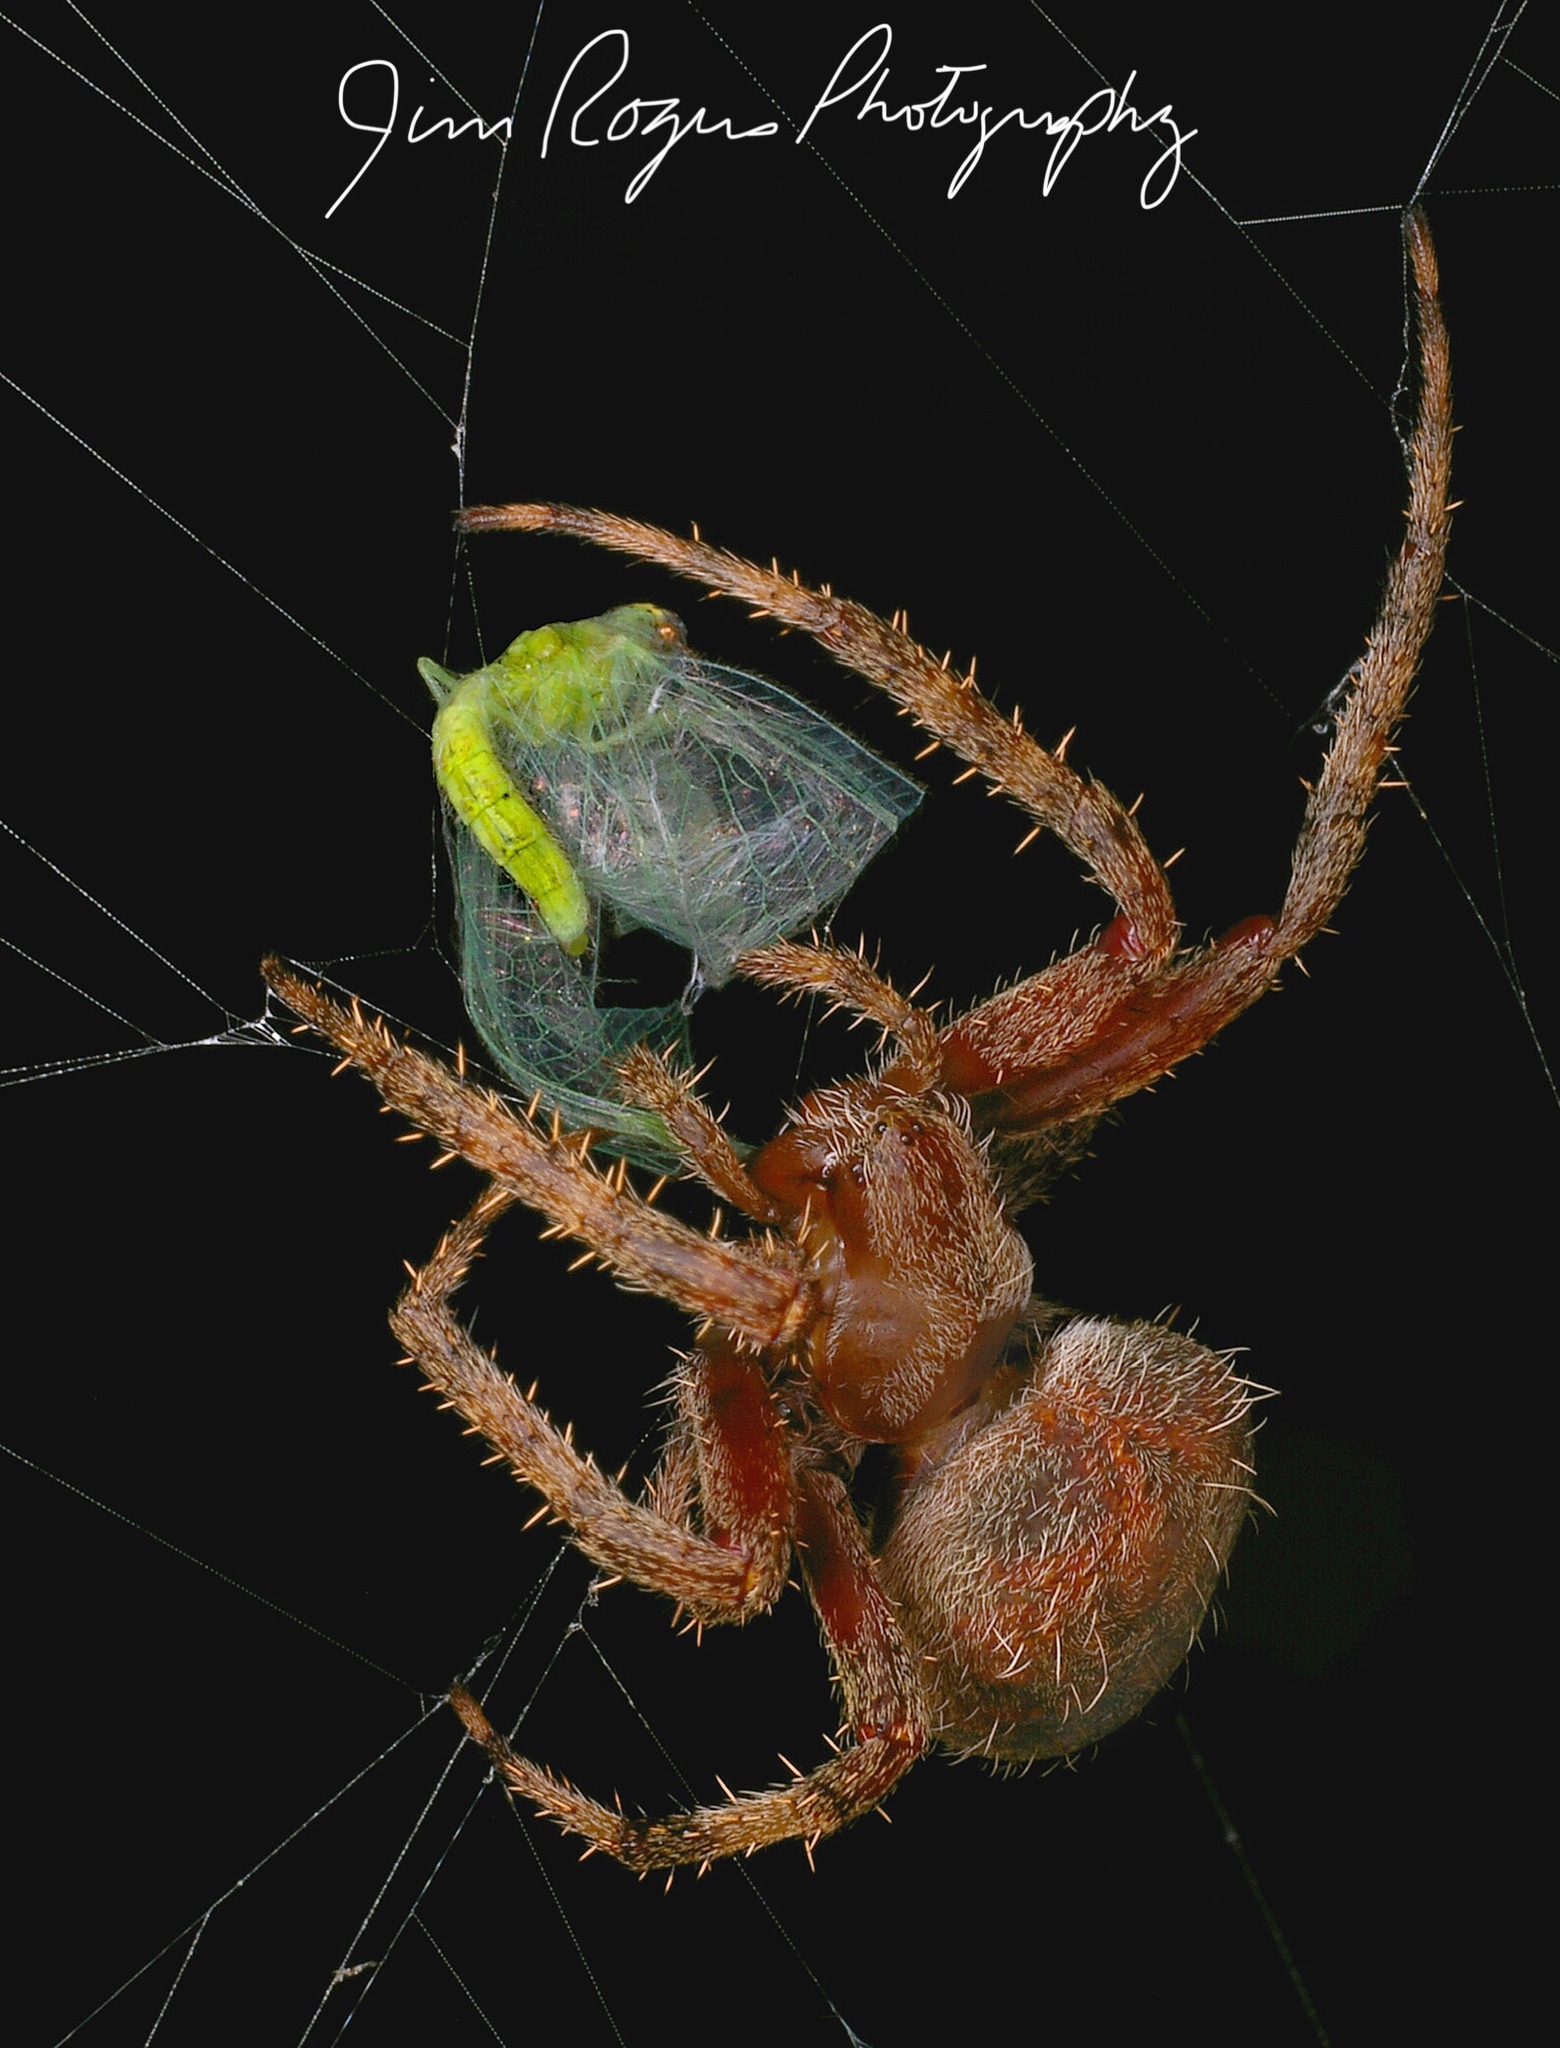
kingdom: Animalia
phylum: Arthropoda
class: Arachnida
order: Araneae
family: Araneidae
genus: Neoscona
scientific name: Neoscona crucifera
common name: Spotted orbweaver
